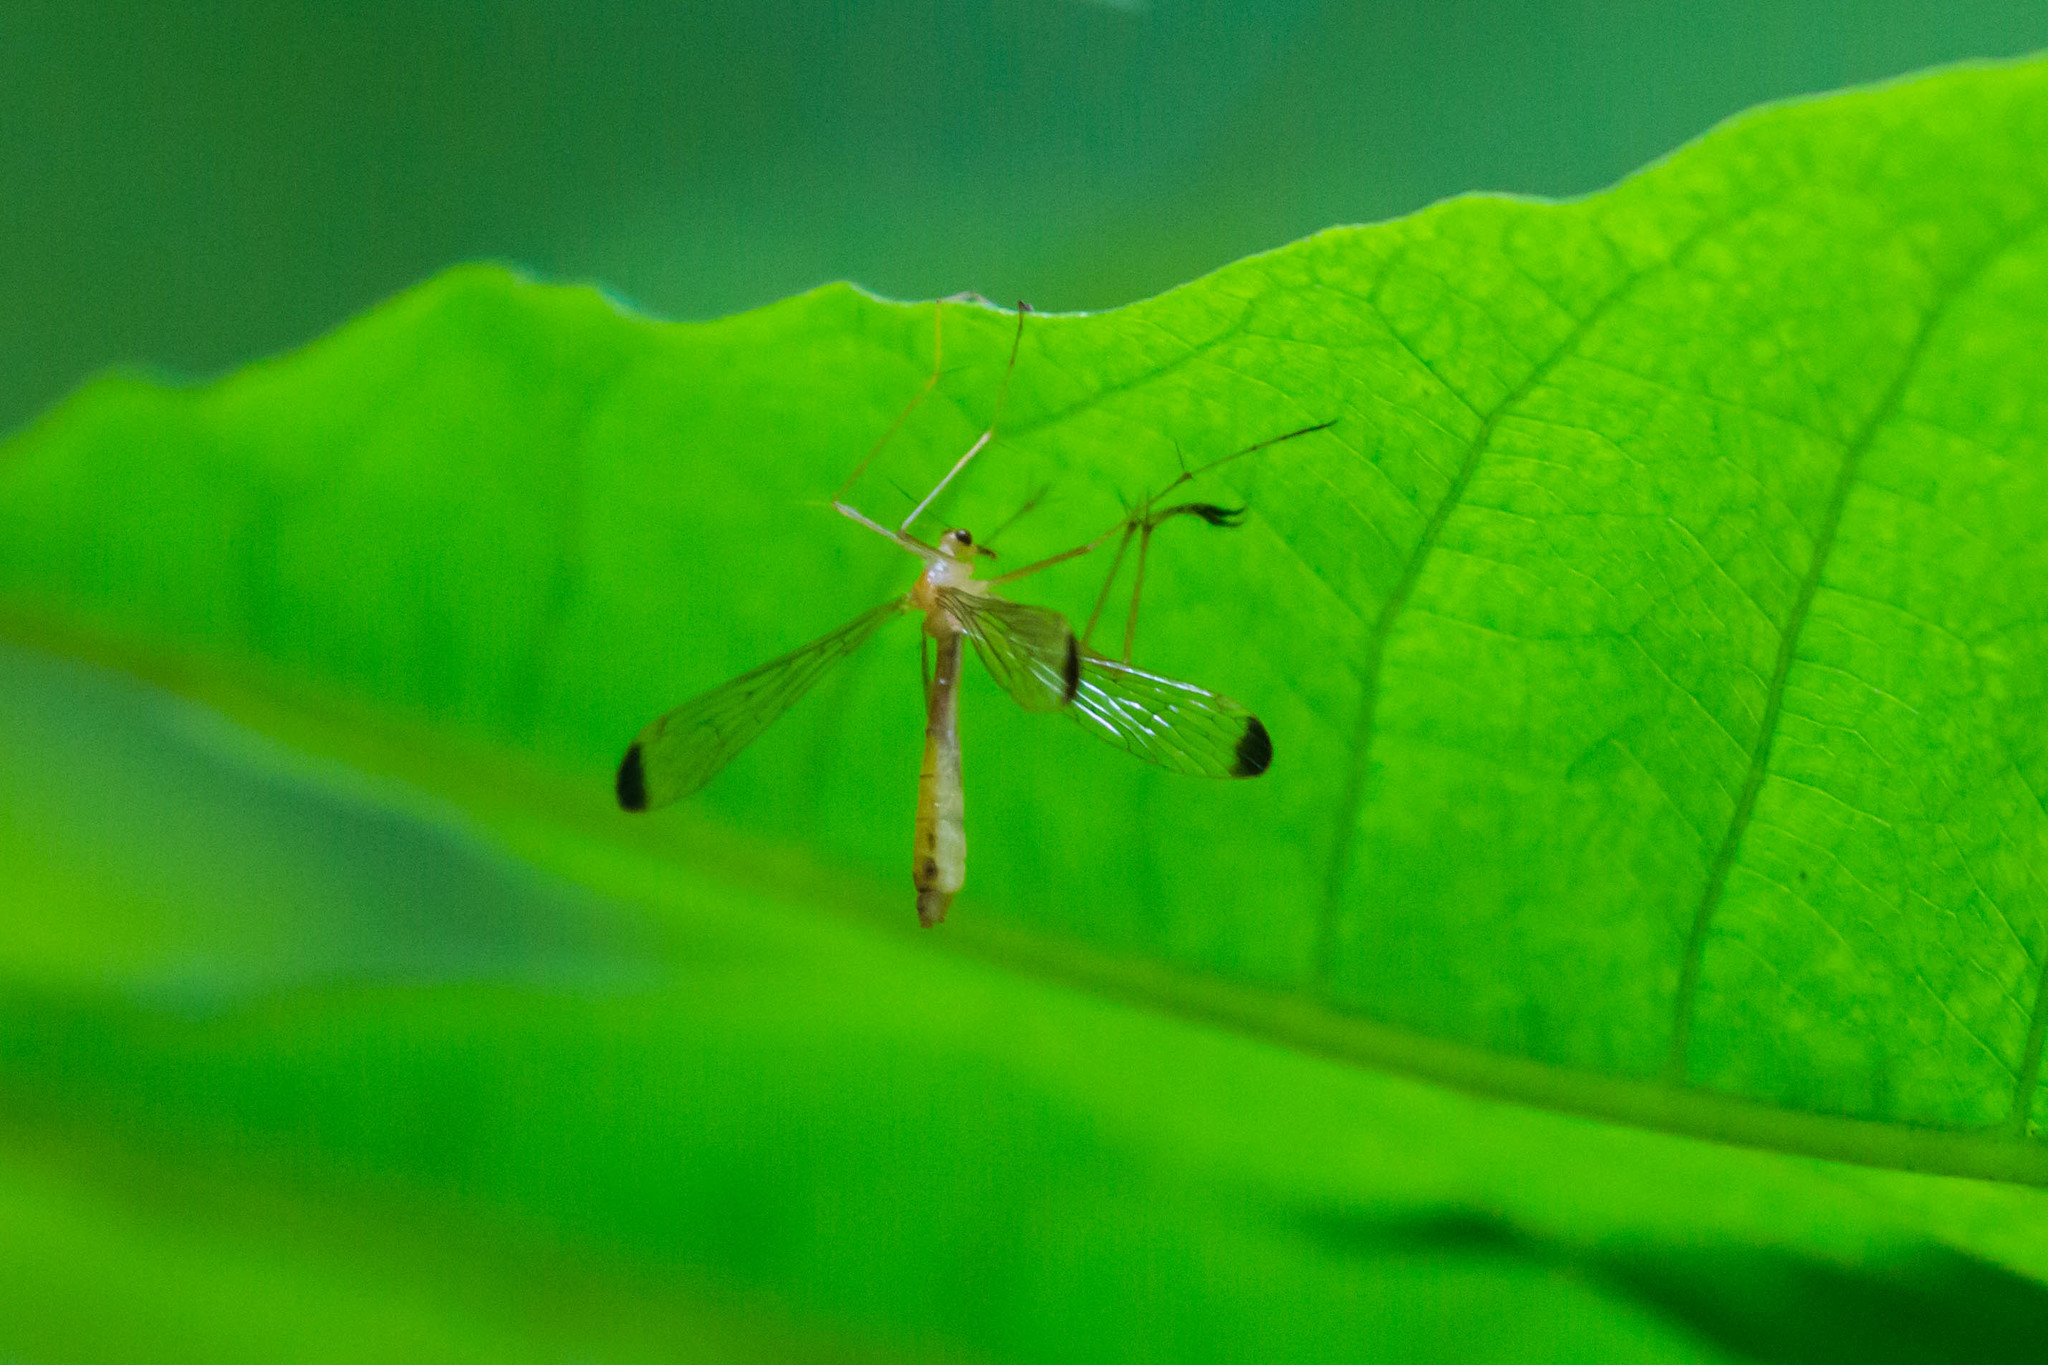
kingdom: Animalia
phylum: Arthropoda
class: Insecta
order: Mecoptera
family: Bittacidae
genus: Hylobittacus
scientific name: Hylobittacus apicalis
